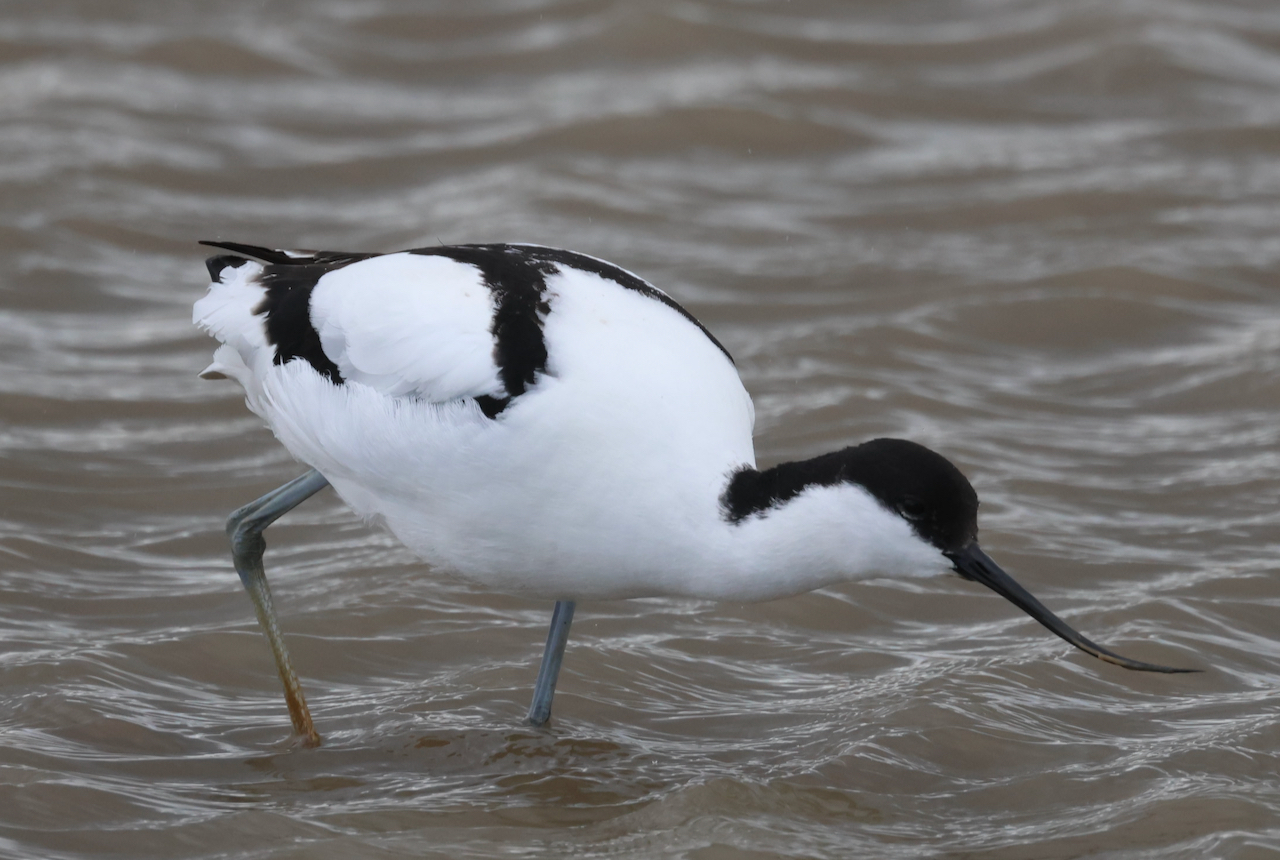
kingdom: Animalia
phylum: Chordata
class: Aves
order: Charadriiformes
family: Recurvirostridae
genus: Recurvirostra
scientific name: Recurvirostra avosetta
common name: Pied avocet
